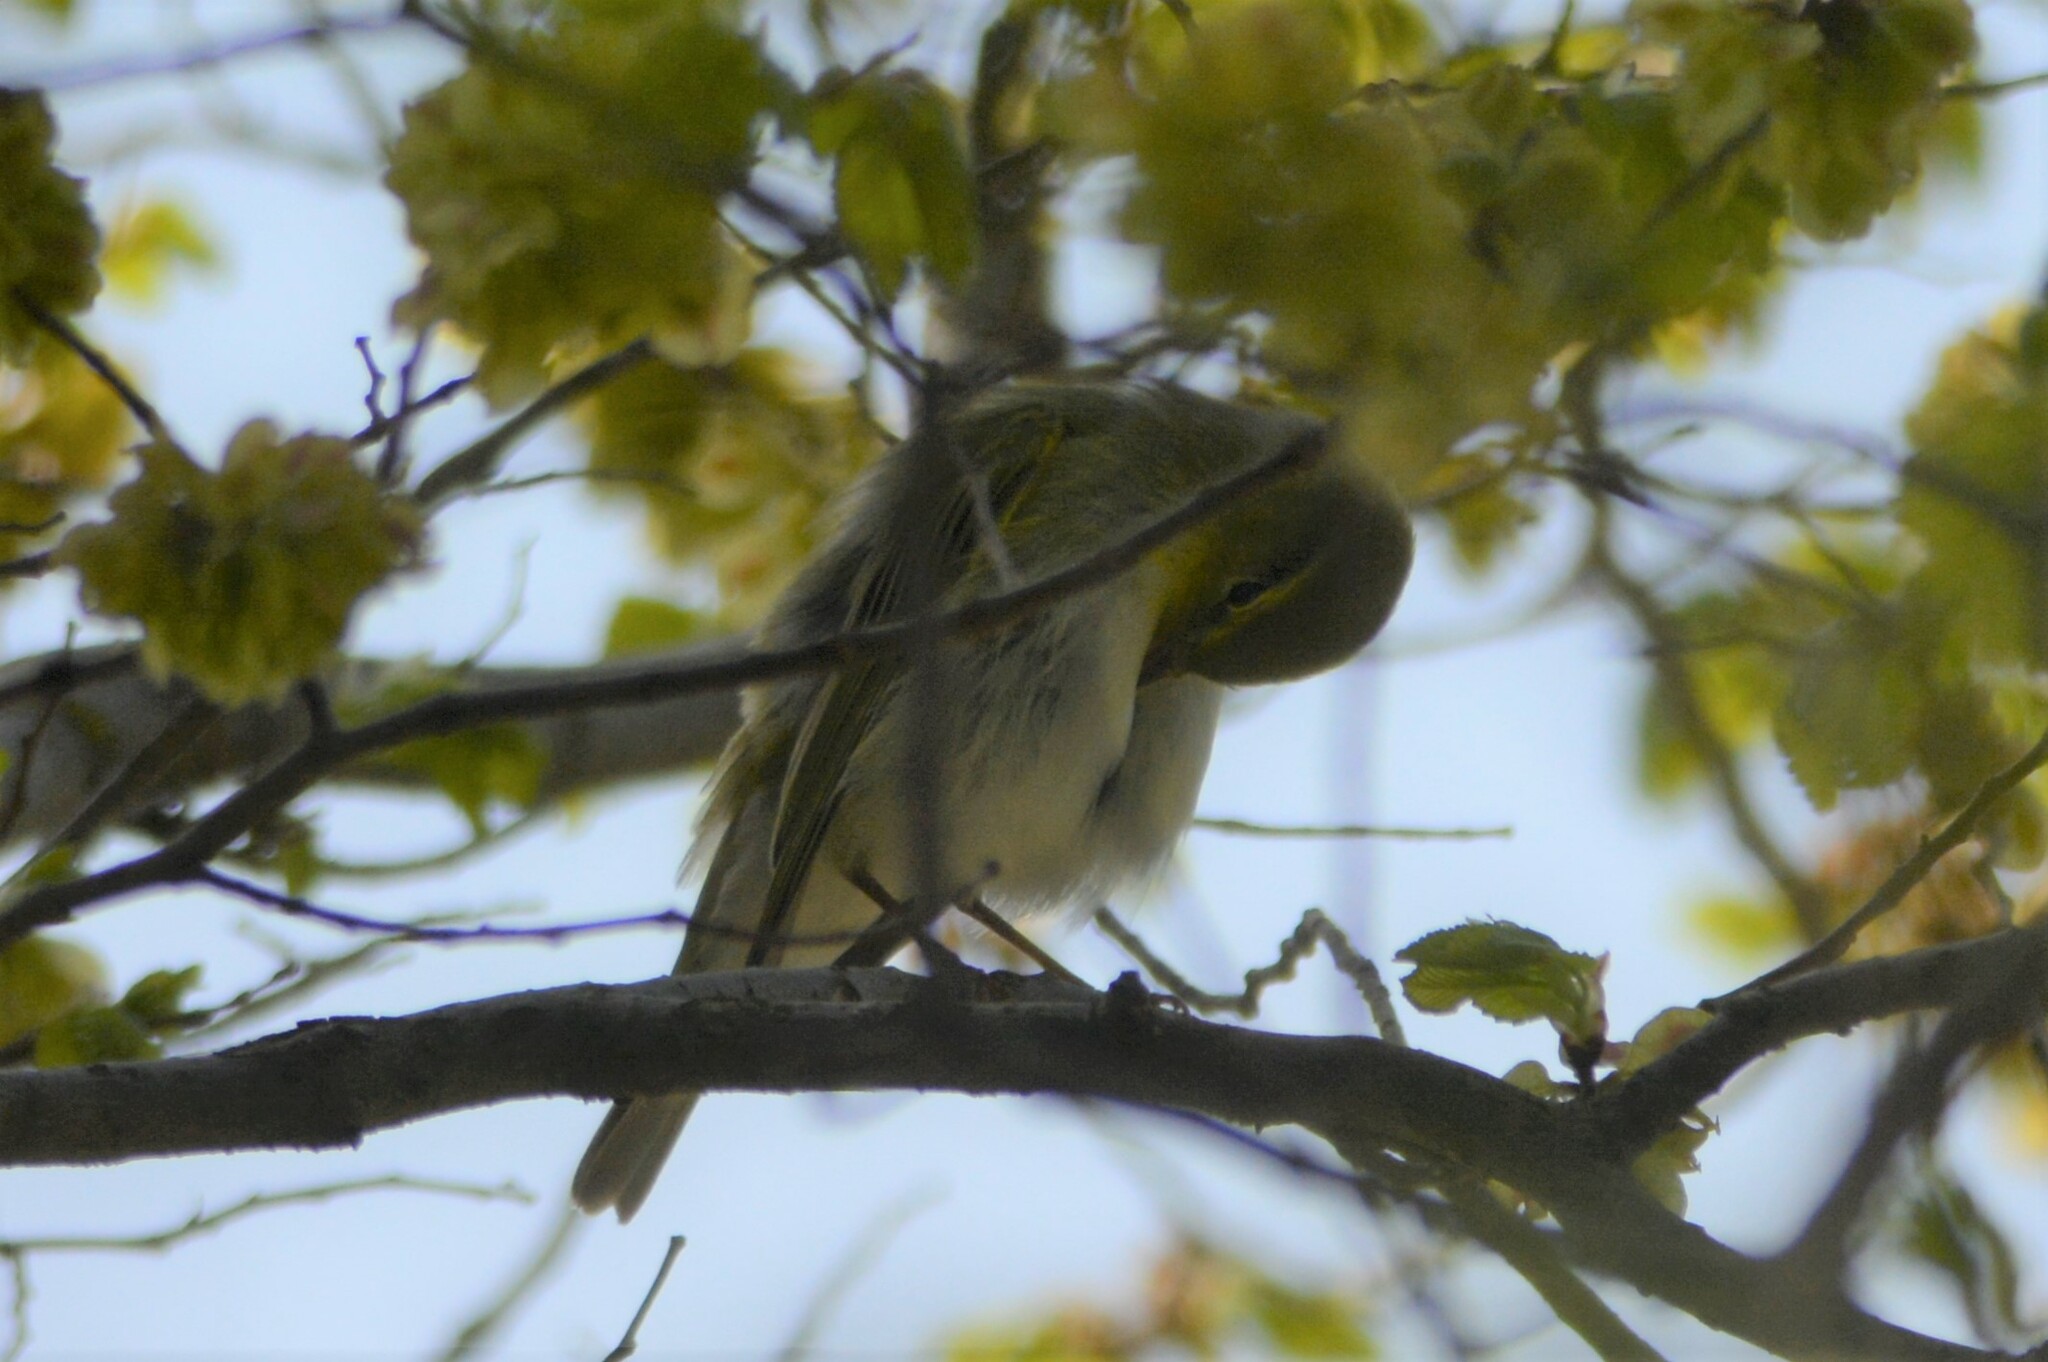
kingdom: Animalia
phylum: Chordata
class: Aves
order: Passeriformes
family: Phylloscopidae
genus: Phylloscopus
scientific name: Phylloscopus sibillatrix
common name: Wood warbler
